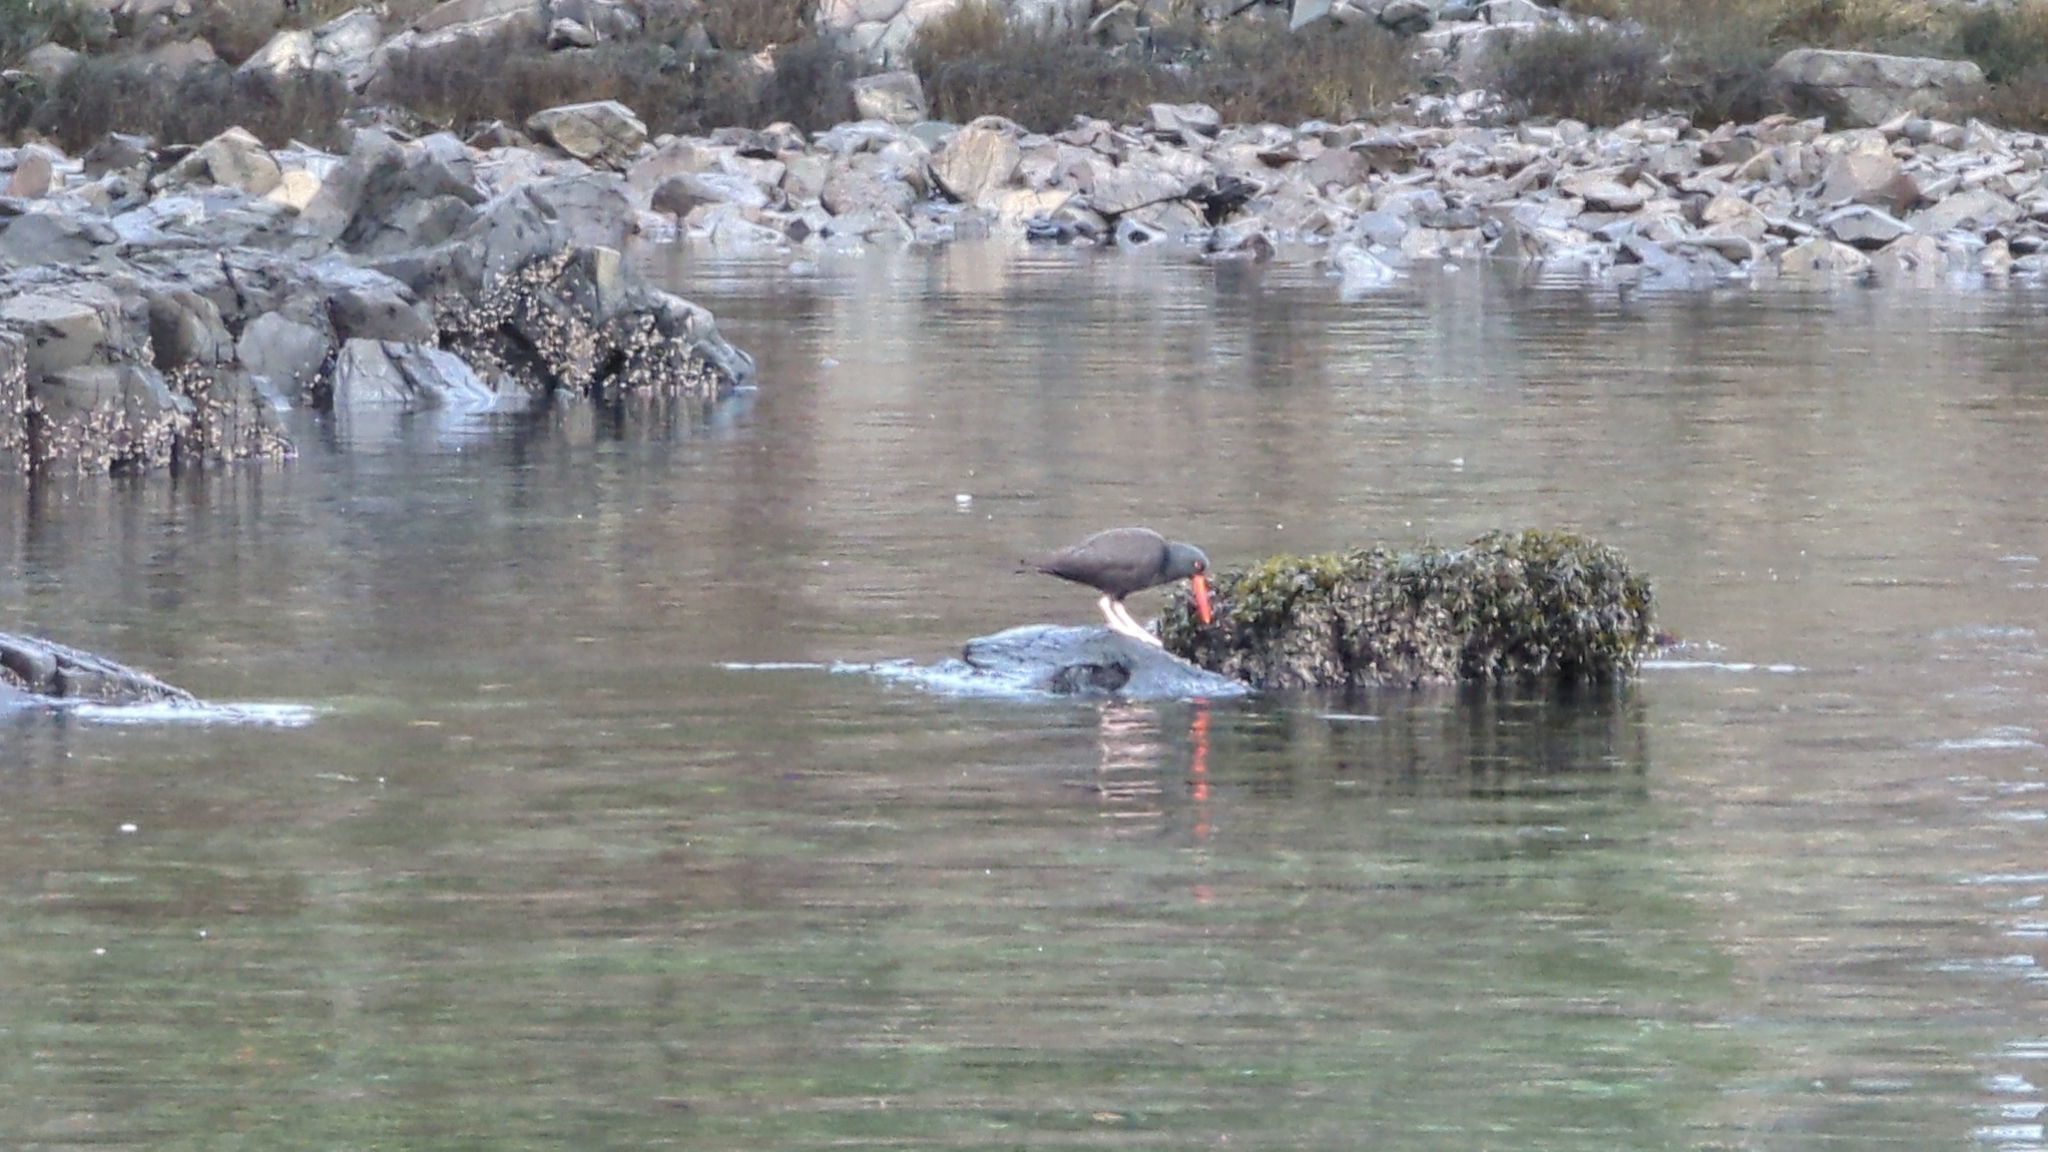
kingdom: Animalia
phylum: Chordata
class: Aves
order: Charadriiformes
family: Haematopodidae
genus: Haematopus
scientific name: Haematopus bachmani
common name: Black oystercatcher
